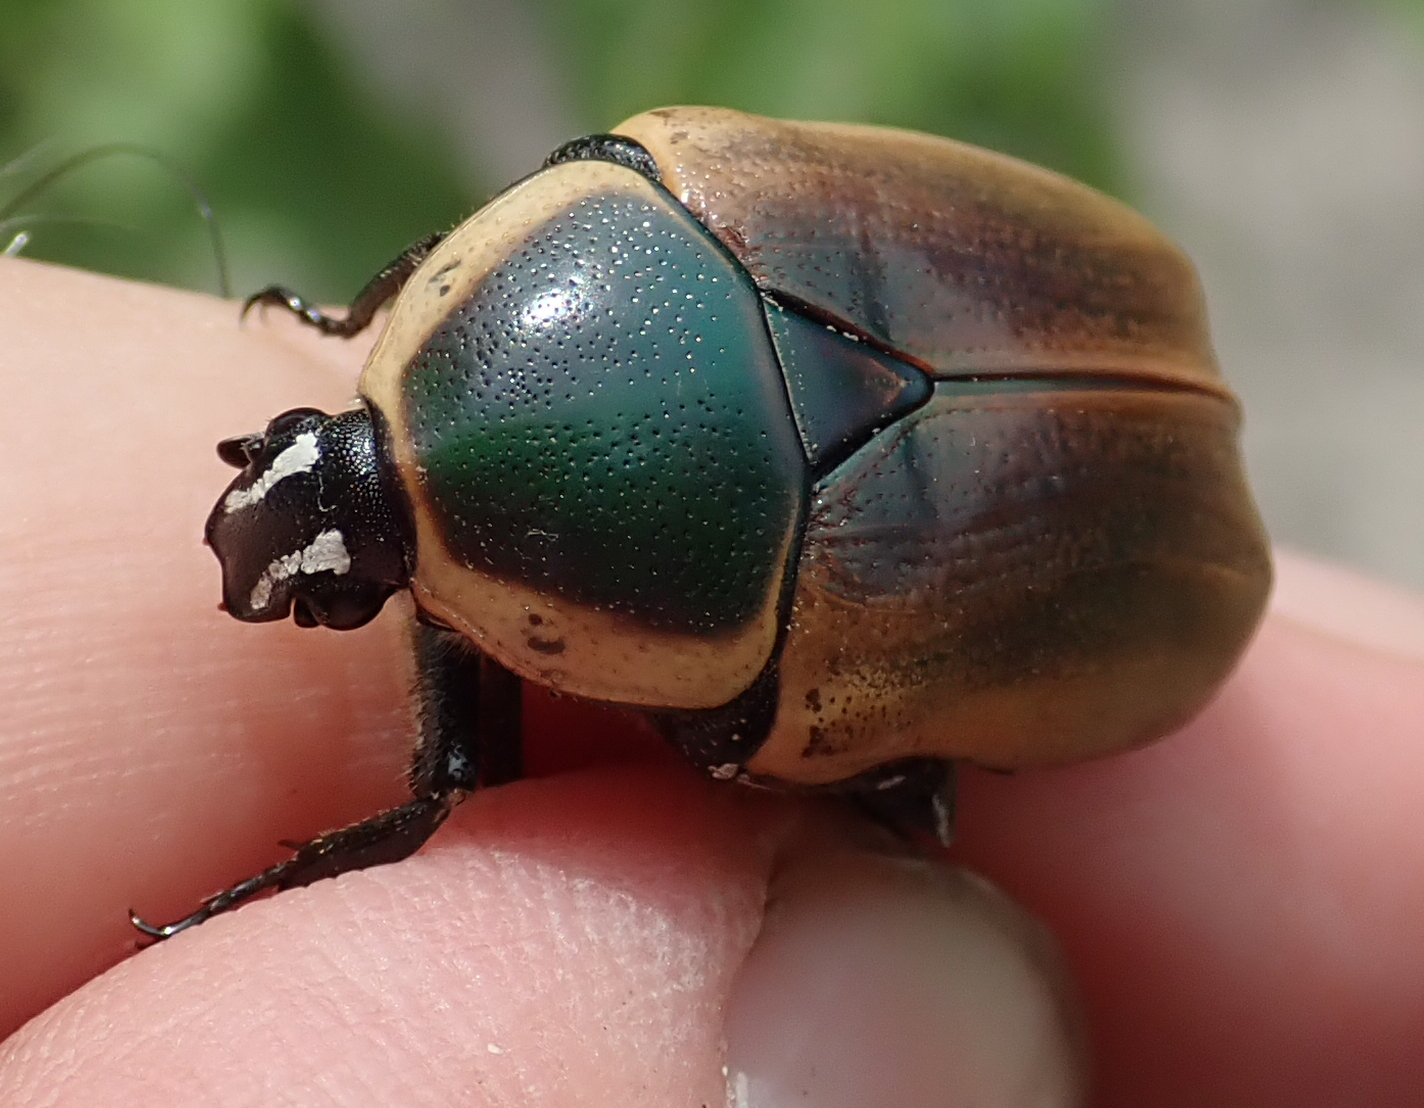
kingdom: Animalia
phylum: Arthropoda
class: Insecta
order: Coleoptera
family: Scarabaeidae
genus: Dischista
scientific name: Dischista rufa
